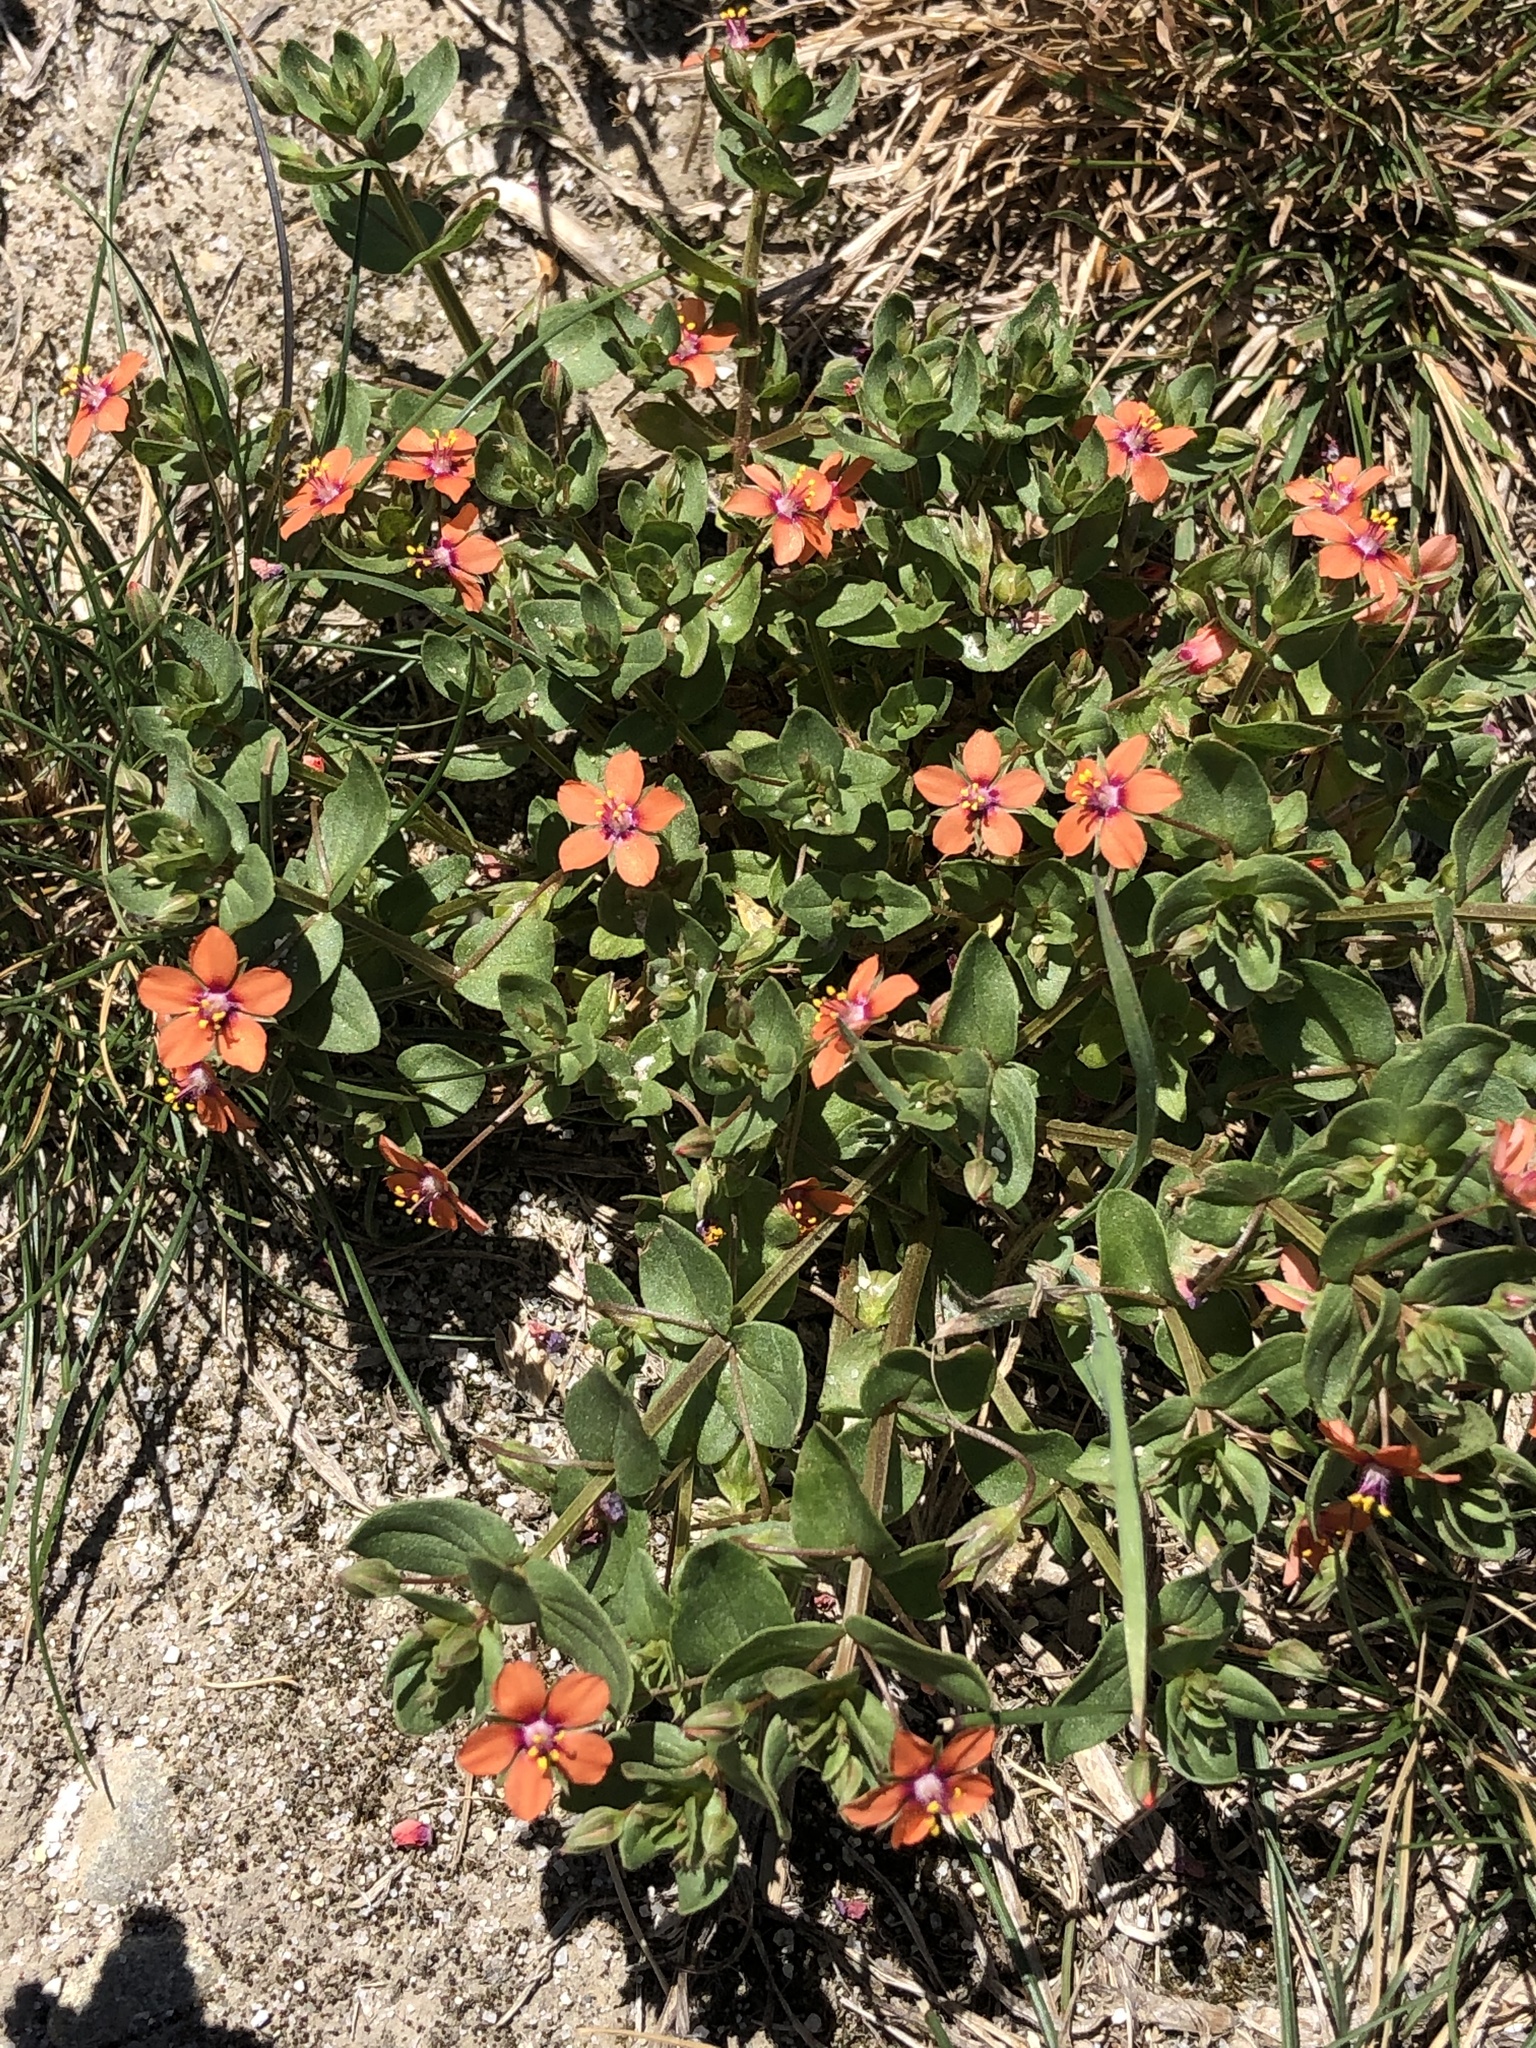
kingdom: Plantae
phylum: Tracheophyta
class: Magnoliopsida
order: Ericales
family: Primulaceae
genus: Lysimachia
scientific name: Lysimachia arvensis
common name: Scarlet pimpernel
